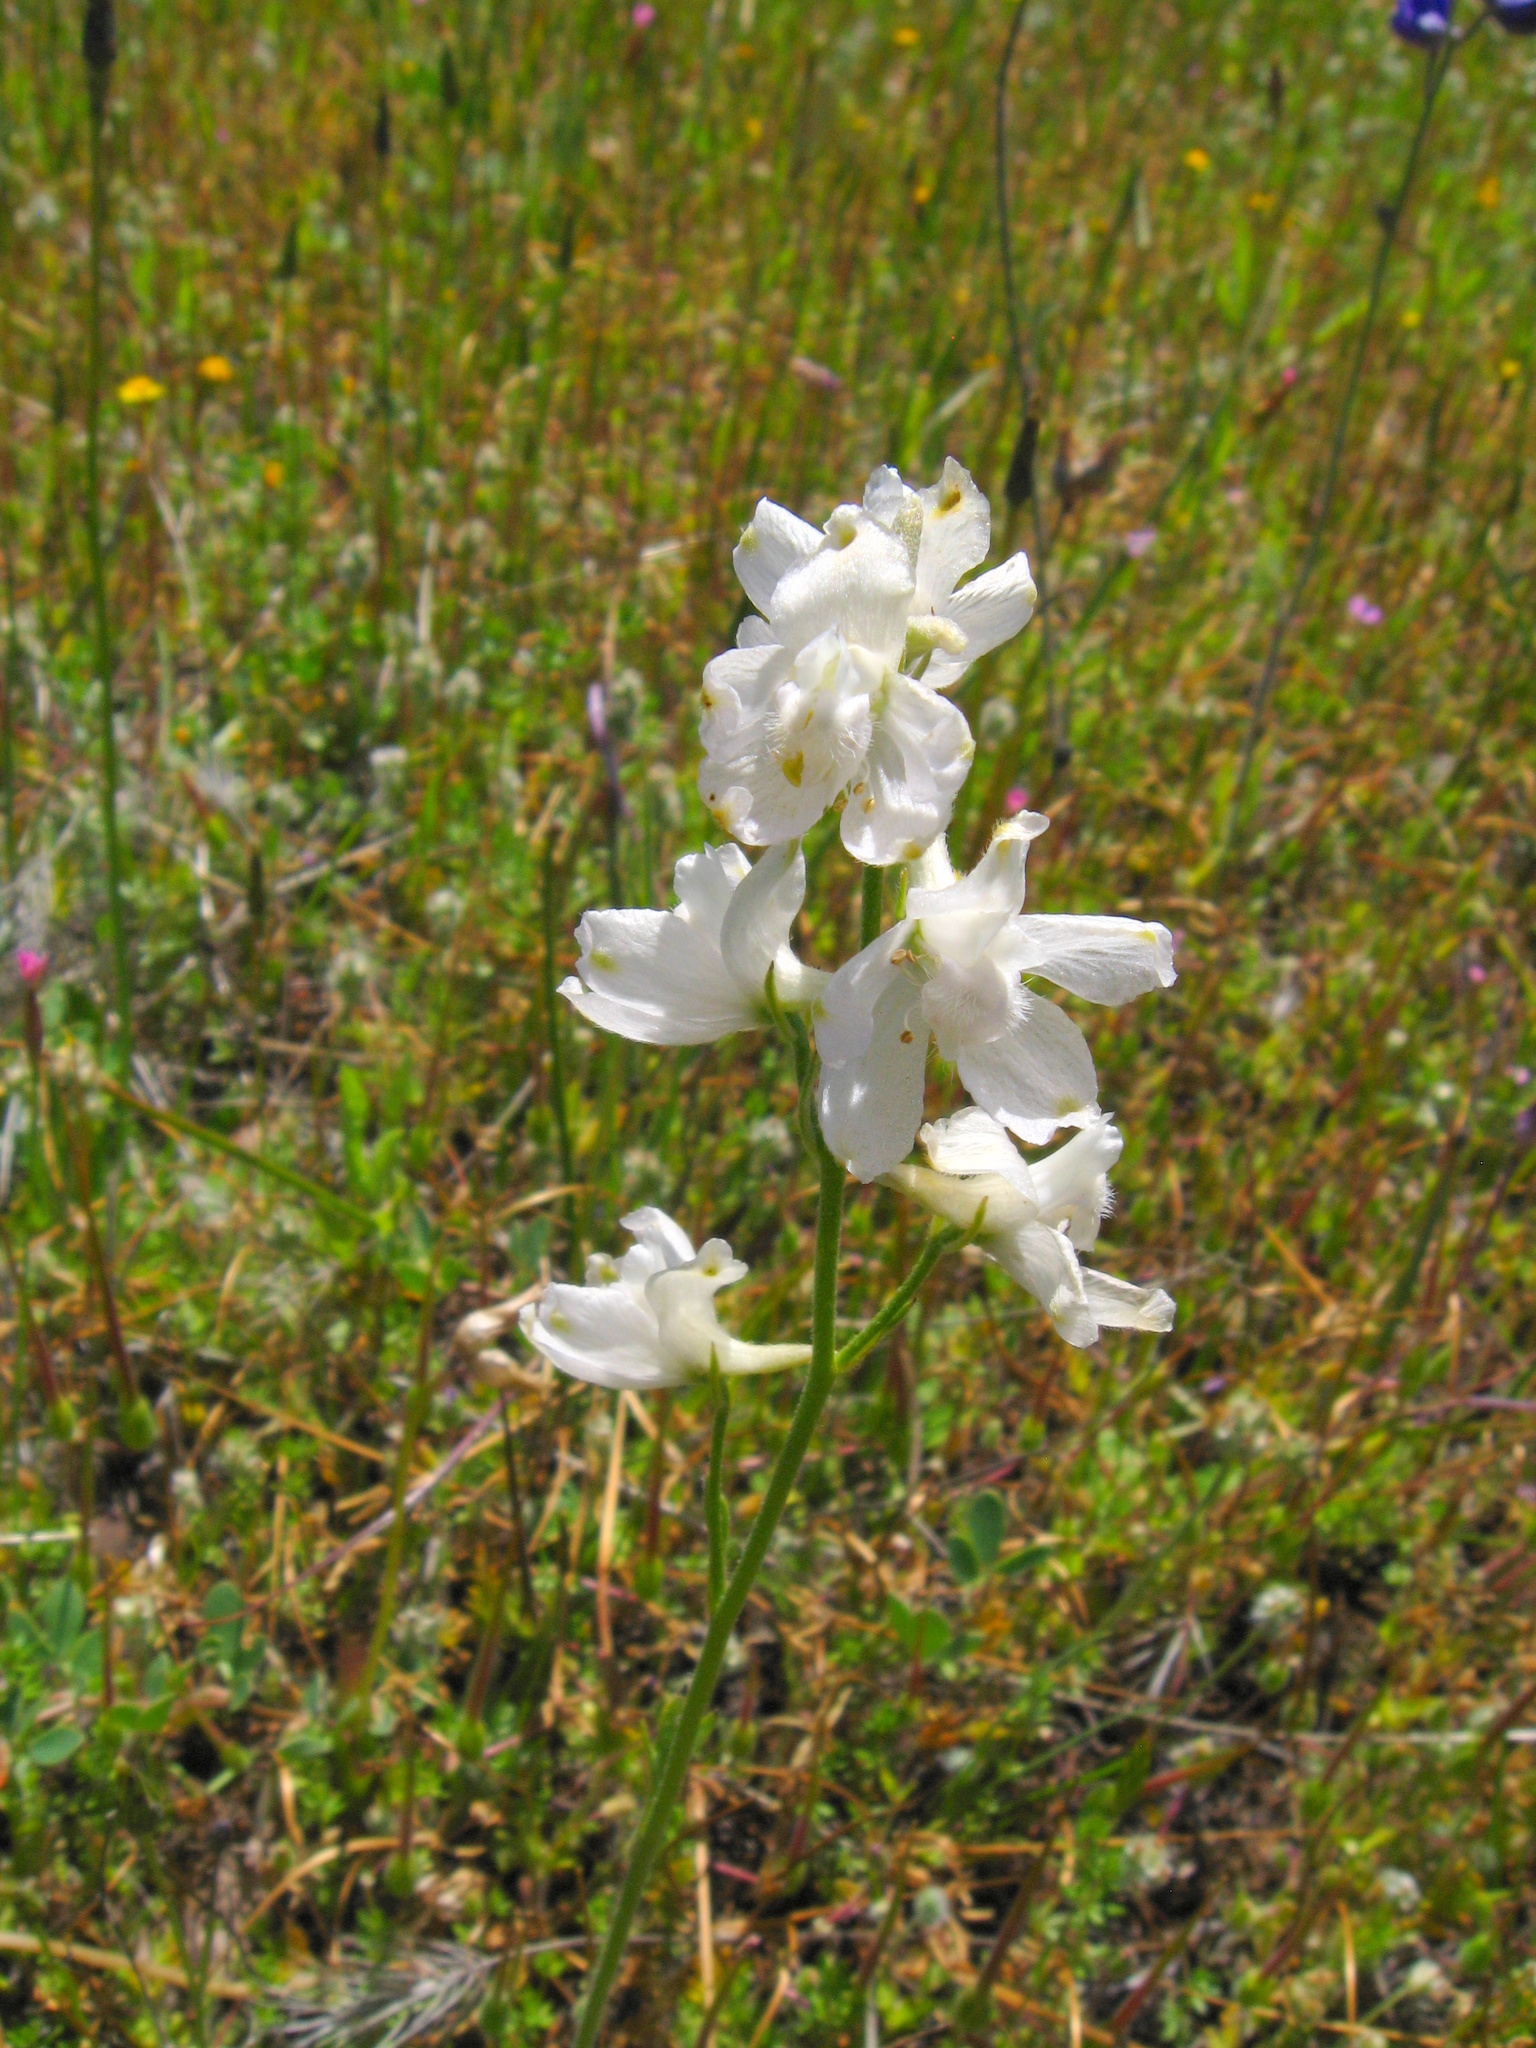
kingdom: Plantae
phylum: Tracheophyta
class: Magnoliopsida
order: Ranunculales
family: Ranunculaceae
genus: Delphinium
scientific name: Delphinium hesperium
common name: Western larkspur
